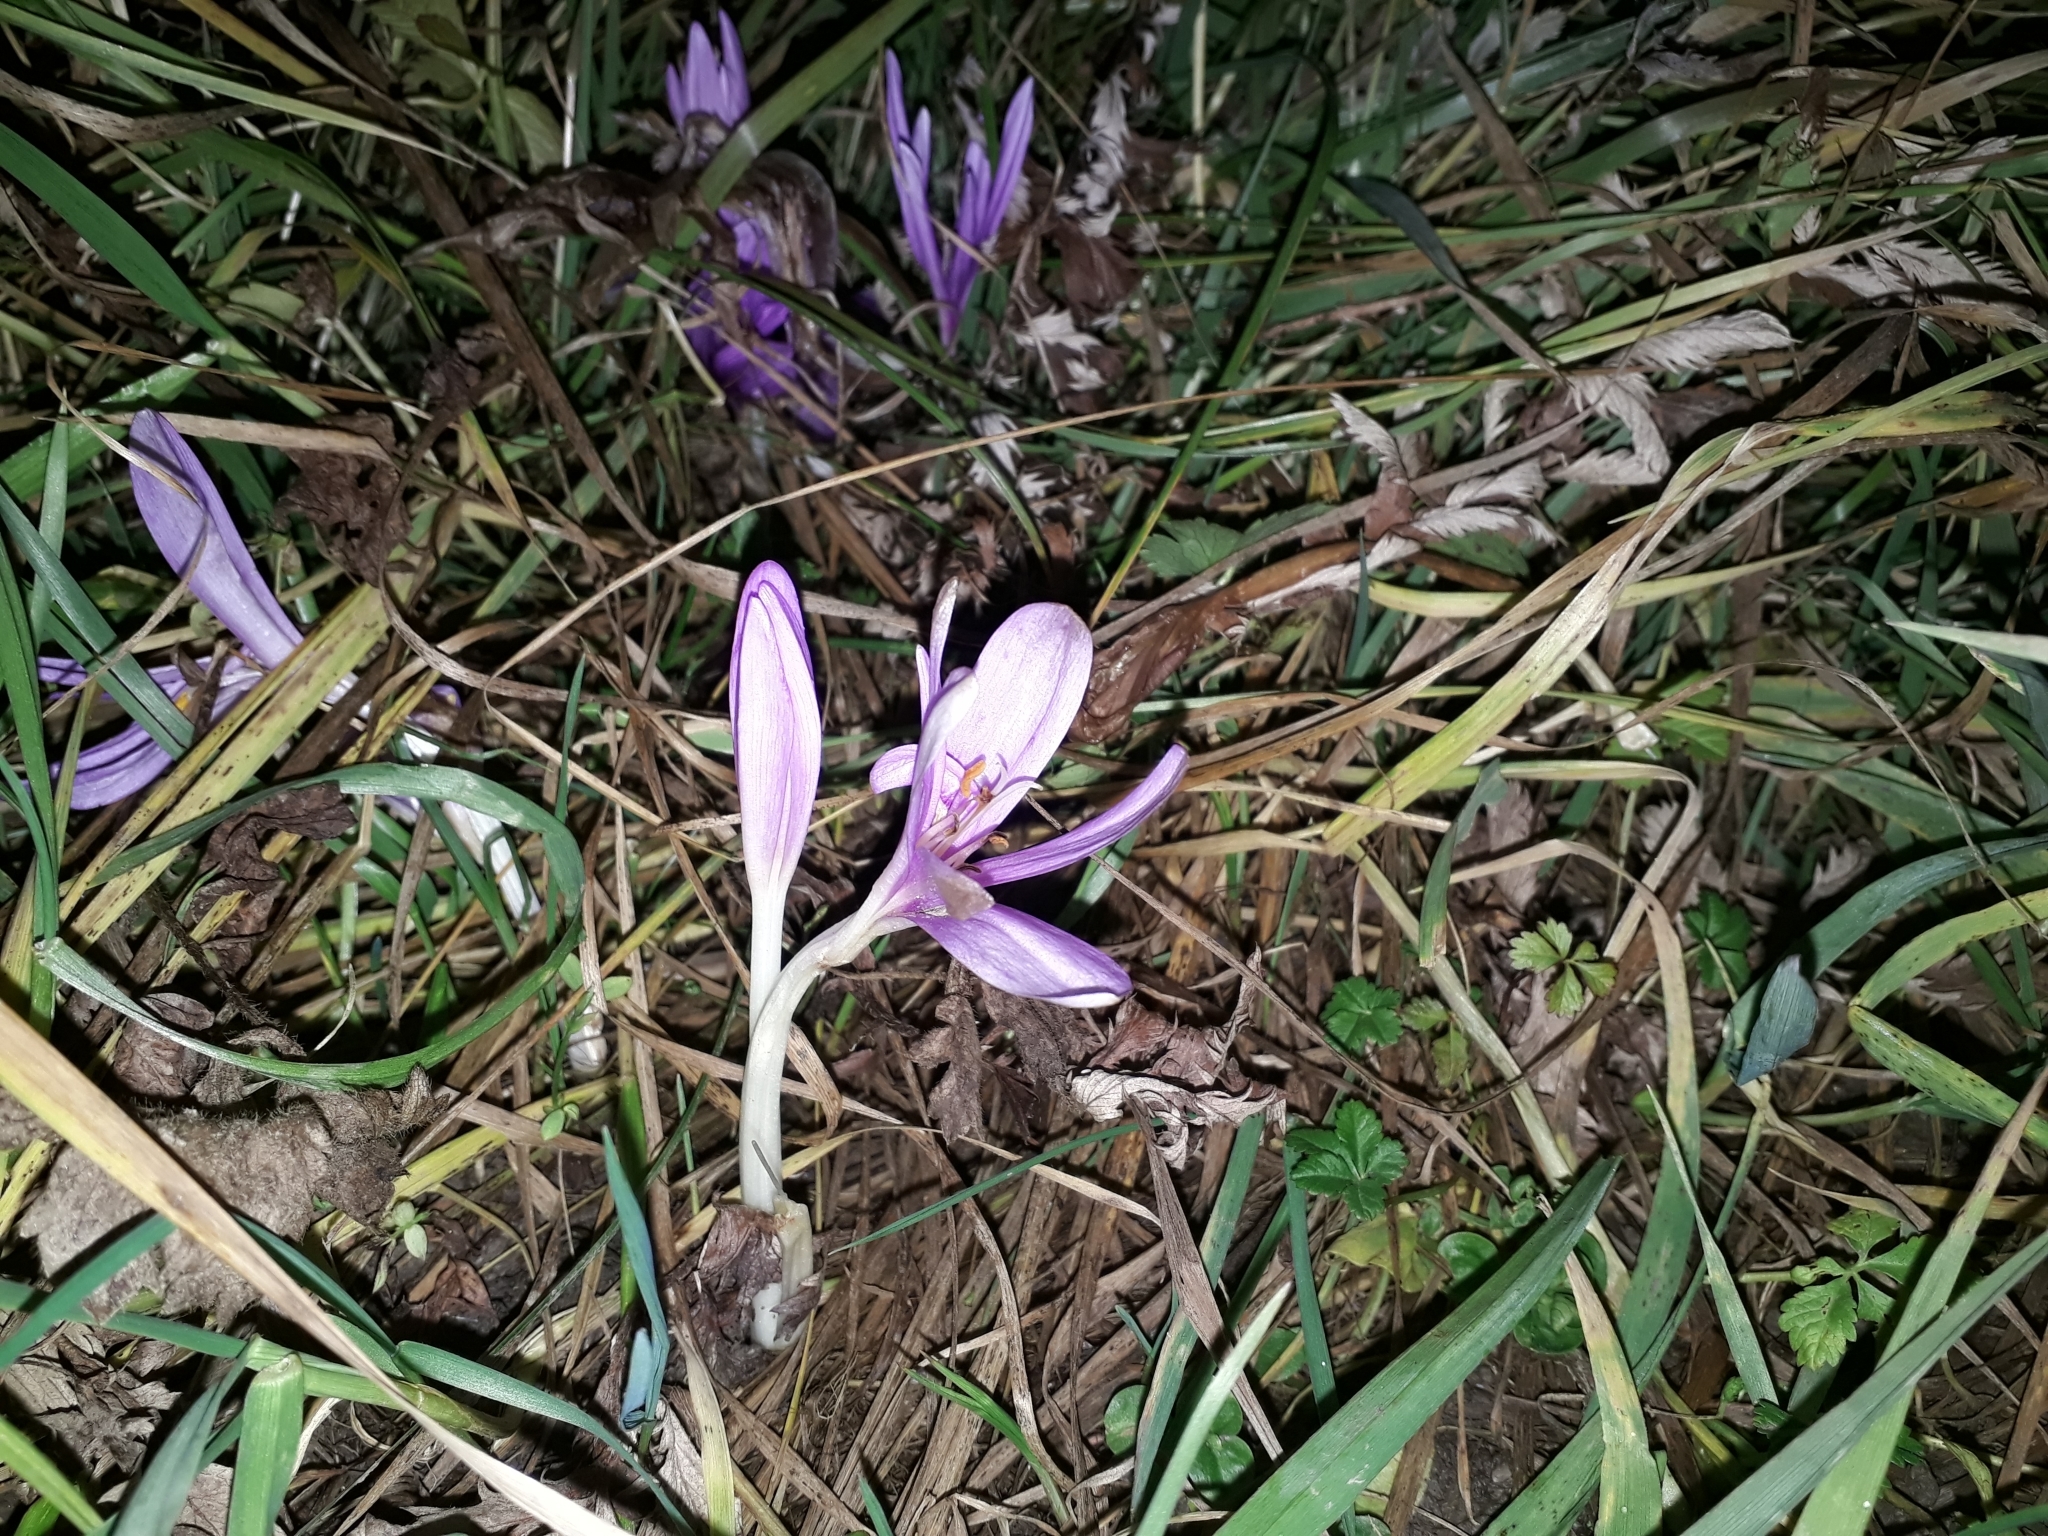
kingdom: Plantae
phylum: Tracheophyta
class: Liliopsida
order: Liliales
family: Colchicaceae
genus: Colchicum
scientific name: Colchicum autumnale
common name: Autumn crocus
